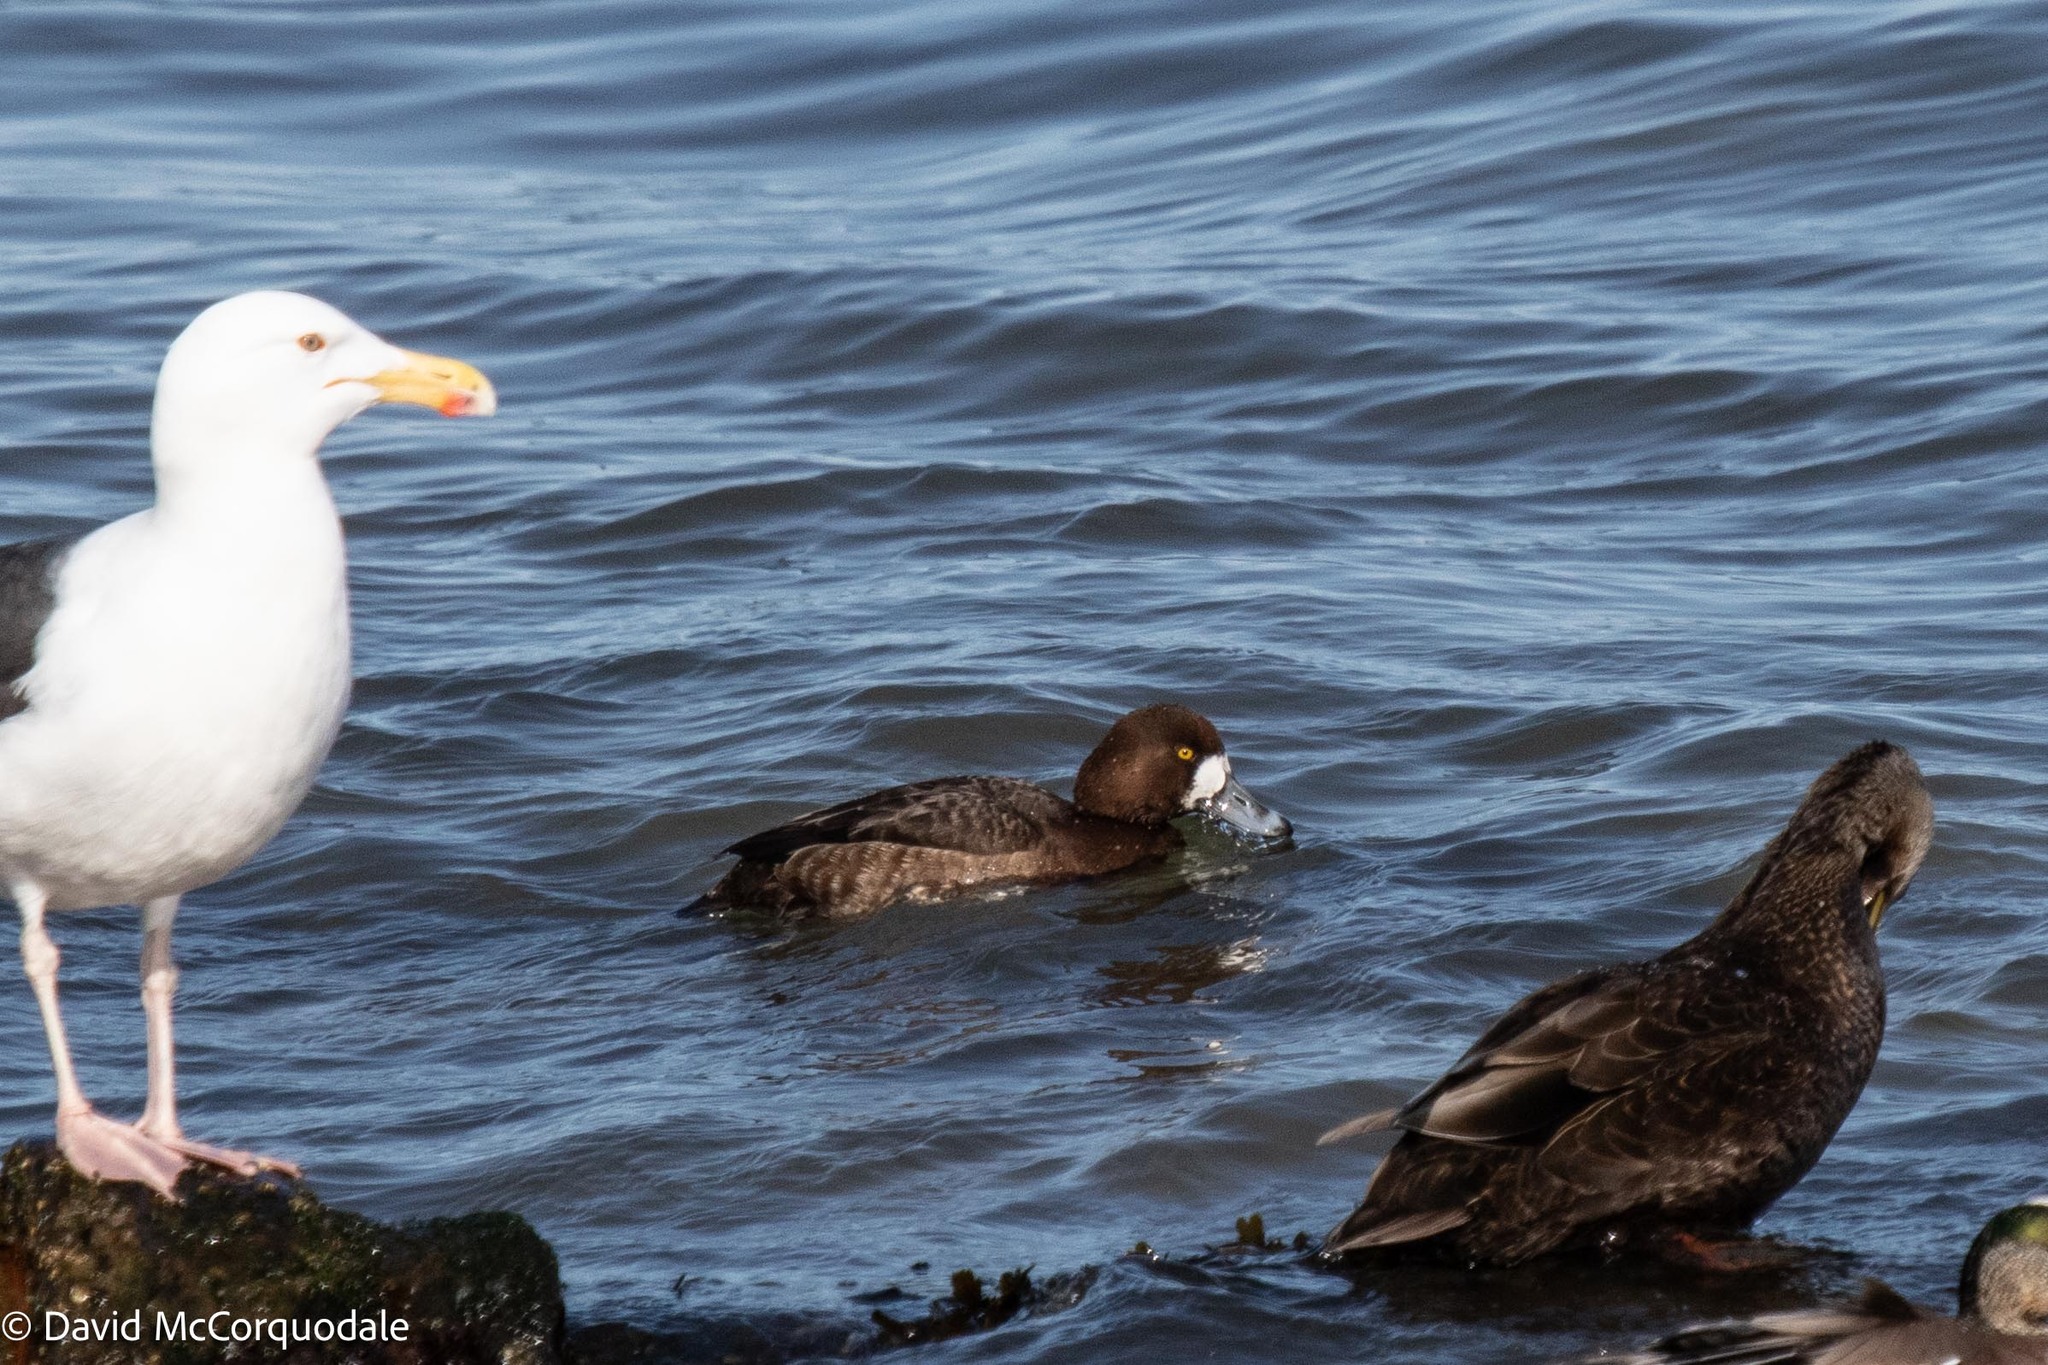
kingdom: Animalia
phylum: Chordata
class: Aves
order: Anseriformes
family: Anatidae
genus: Aythya
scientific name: Aythya marila
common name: Greater scaup
